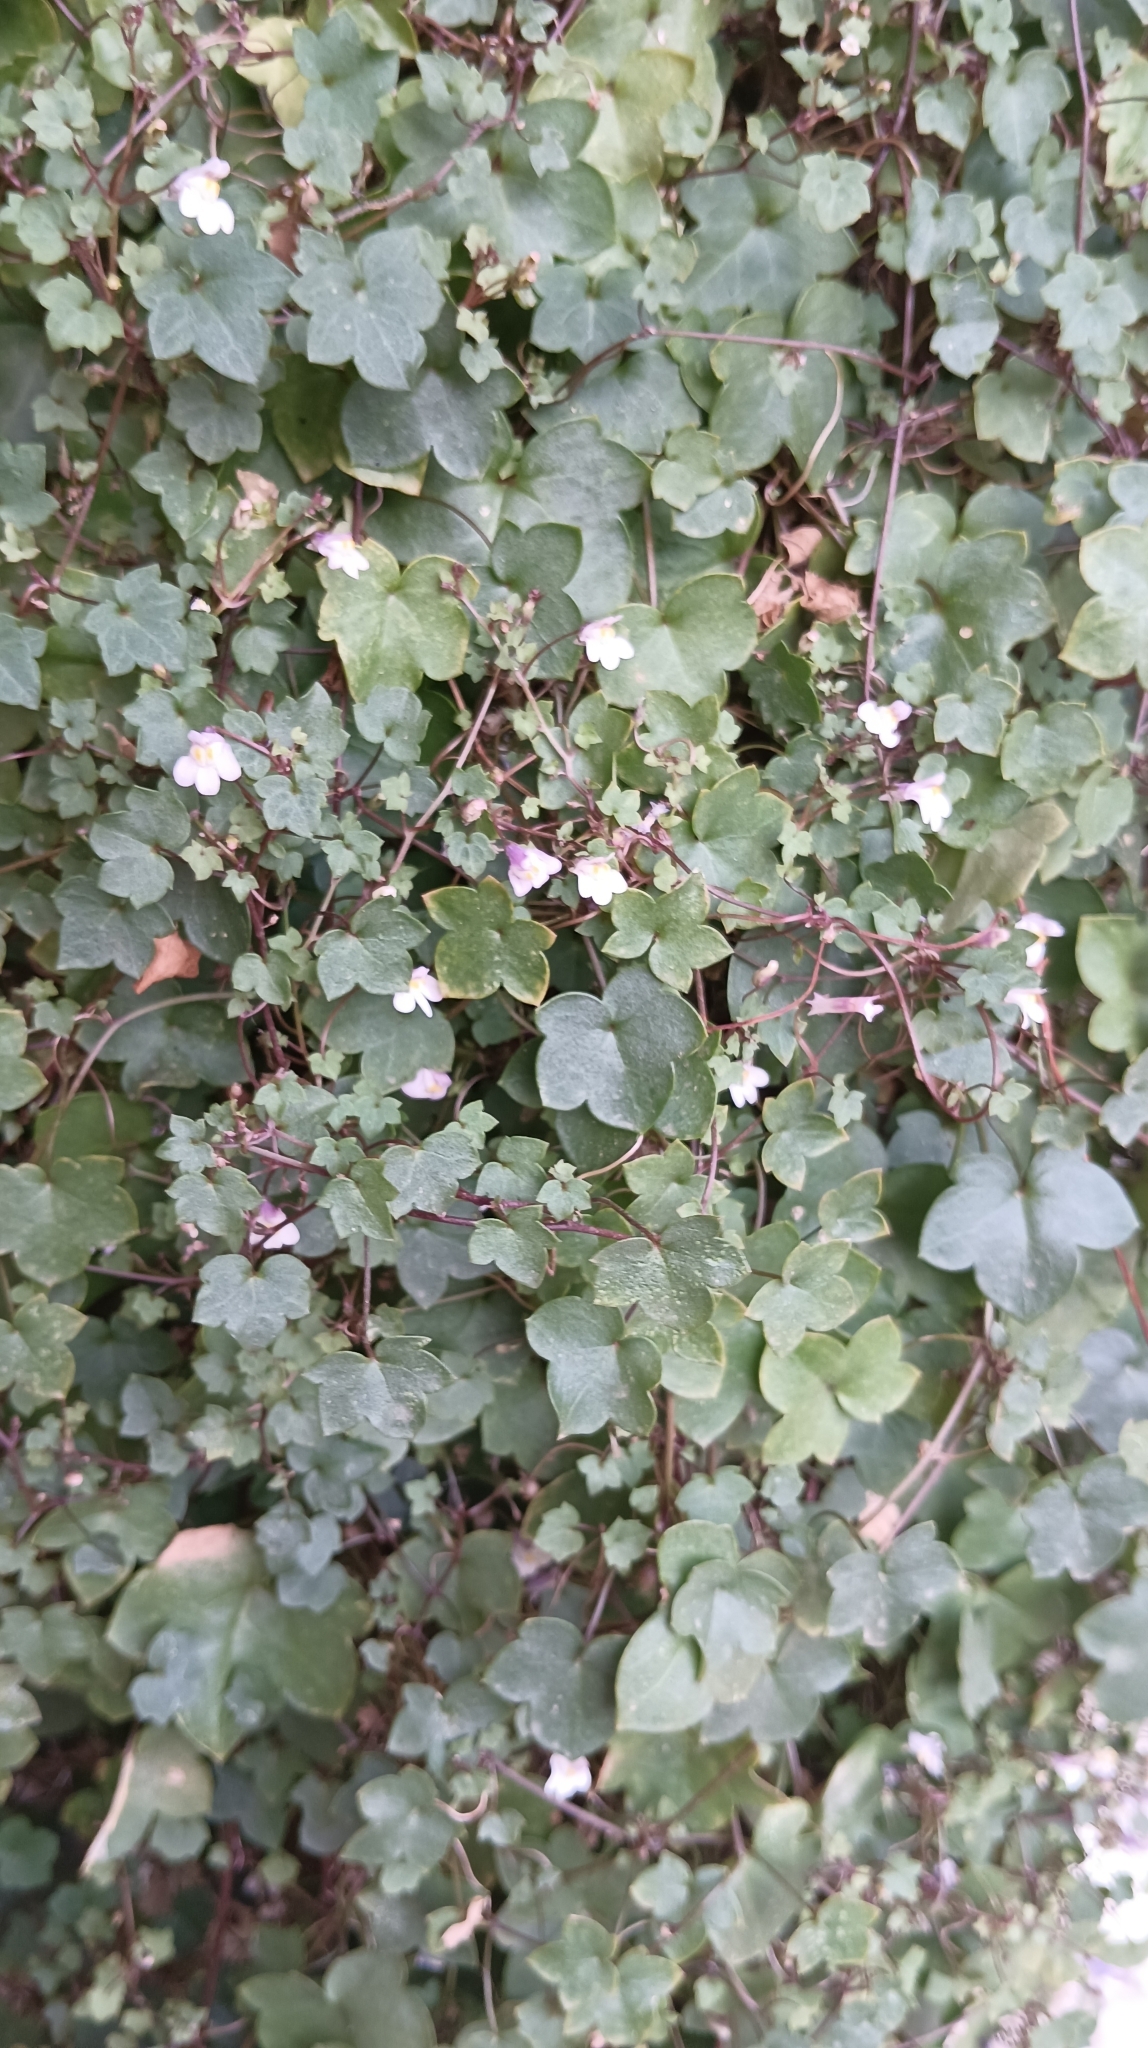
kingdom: Plantae
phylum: Tracheophyta
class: Magnoliopsida
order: Lamiales
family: Plantaginaceae
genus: Cymbalaria
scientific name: Cymbalaria muralis
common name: Ivy-leaved toadflax
